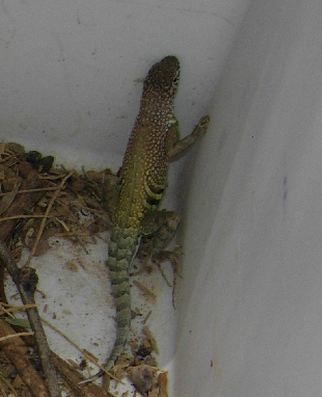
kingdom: Animalia
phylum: Chordata
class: Squamata
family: Phrynosomatidae
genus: Cophosaurus
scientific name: Cophosaurus texanus
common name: Greater earless lizard
